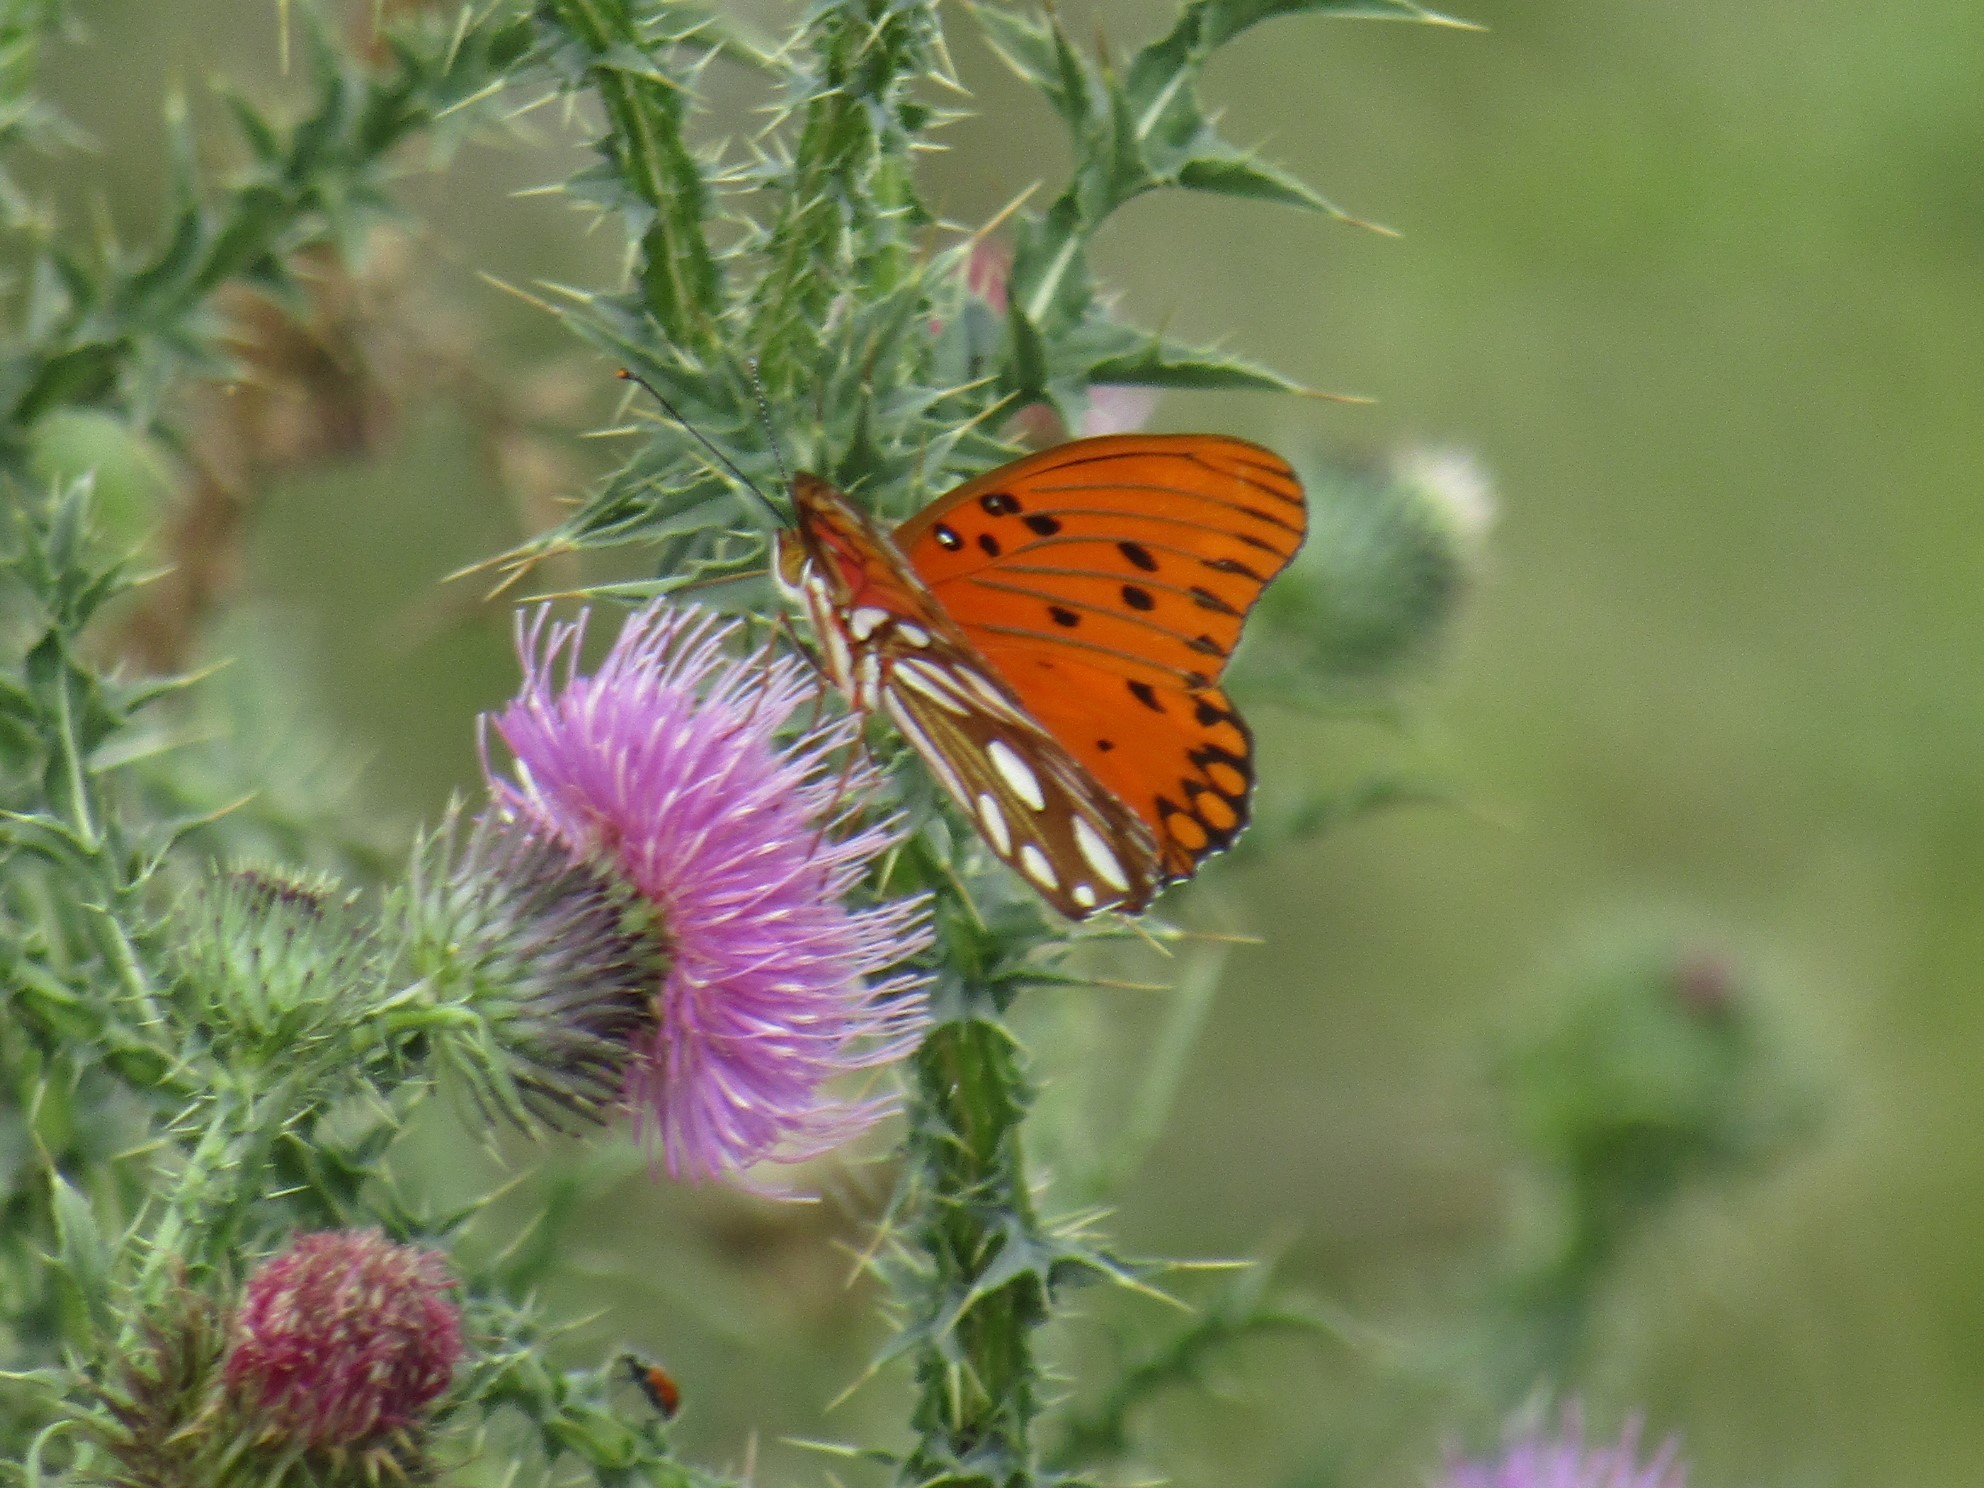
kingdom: Animalia
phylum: Arthropoda
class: Insecta
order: Lepidoptera
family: Nymphalidae
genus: Dione
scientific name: Dione vanillae
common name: Gulf fritillary
